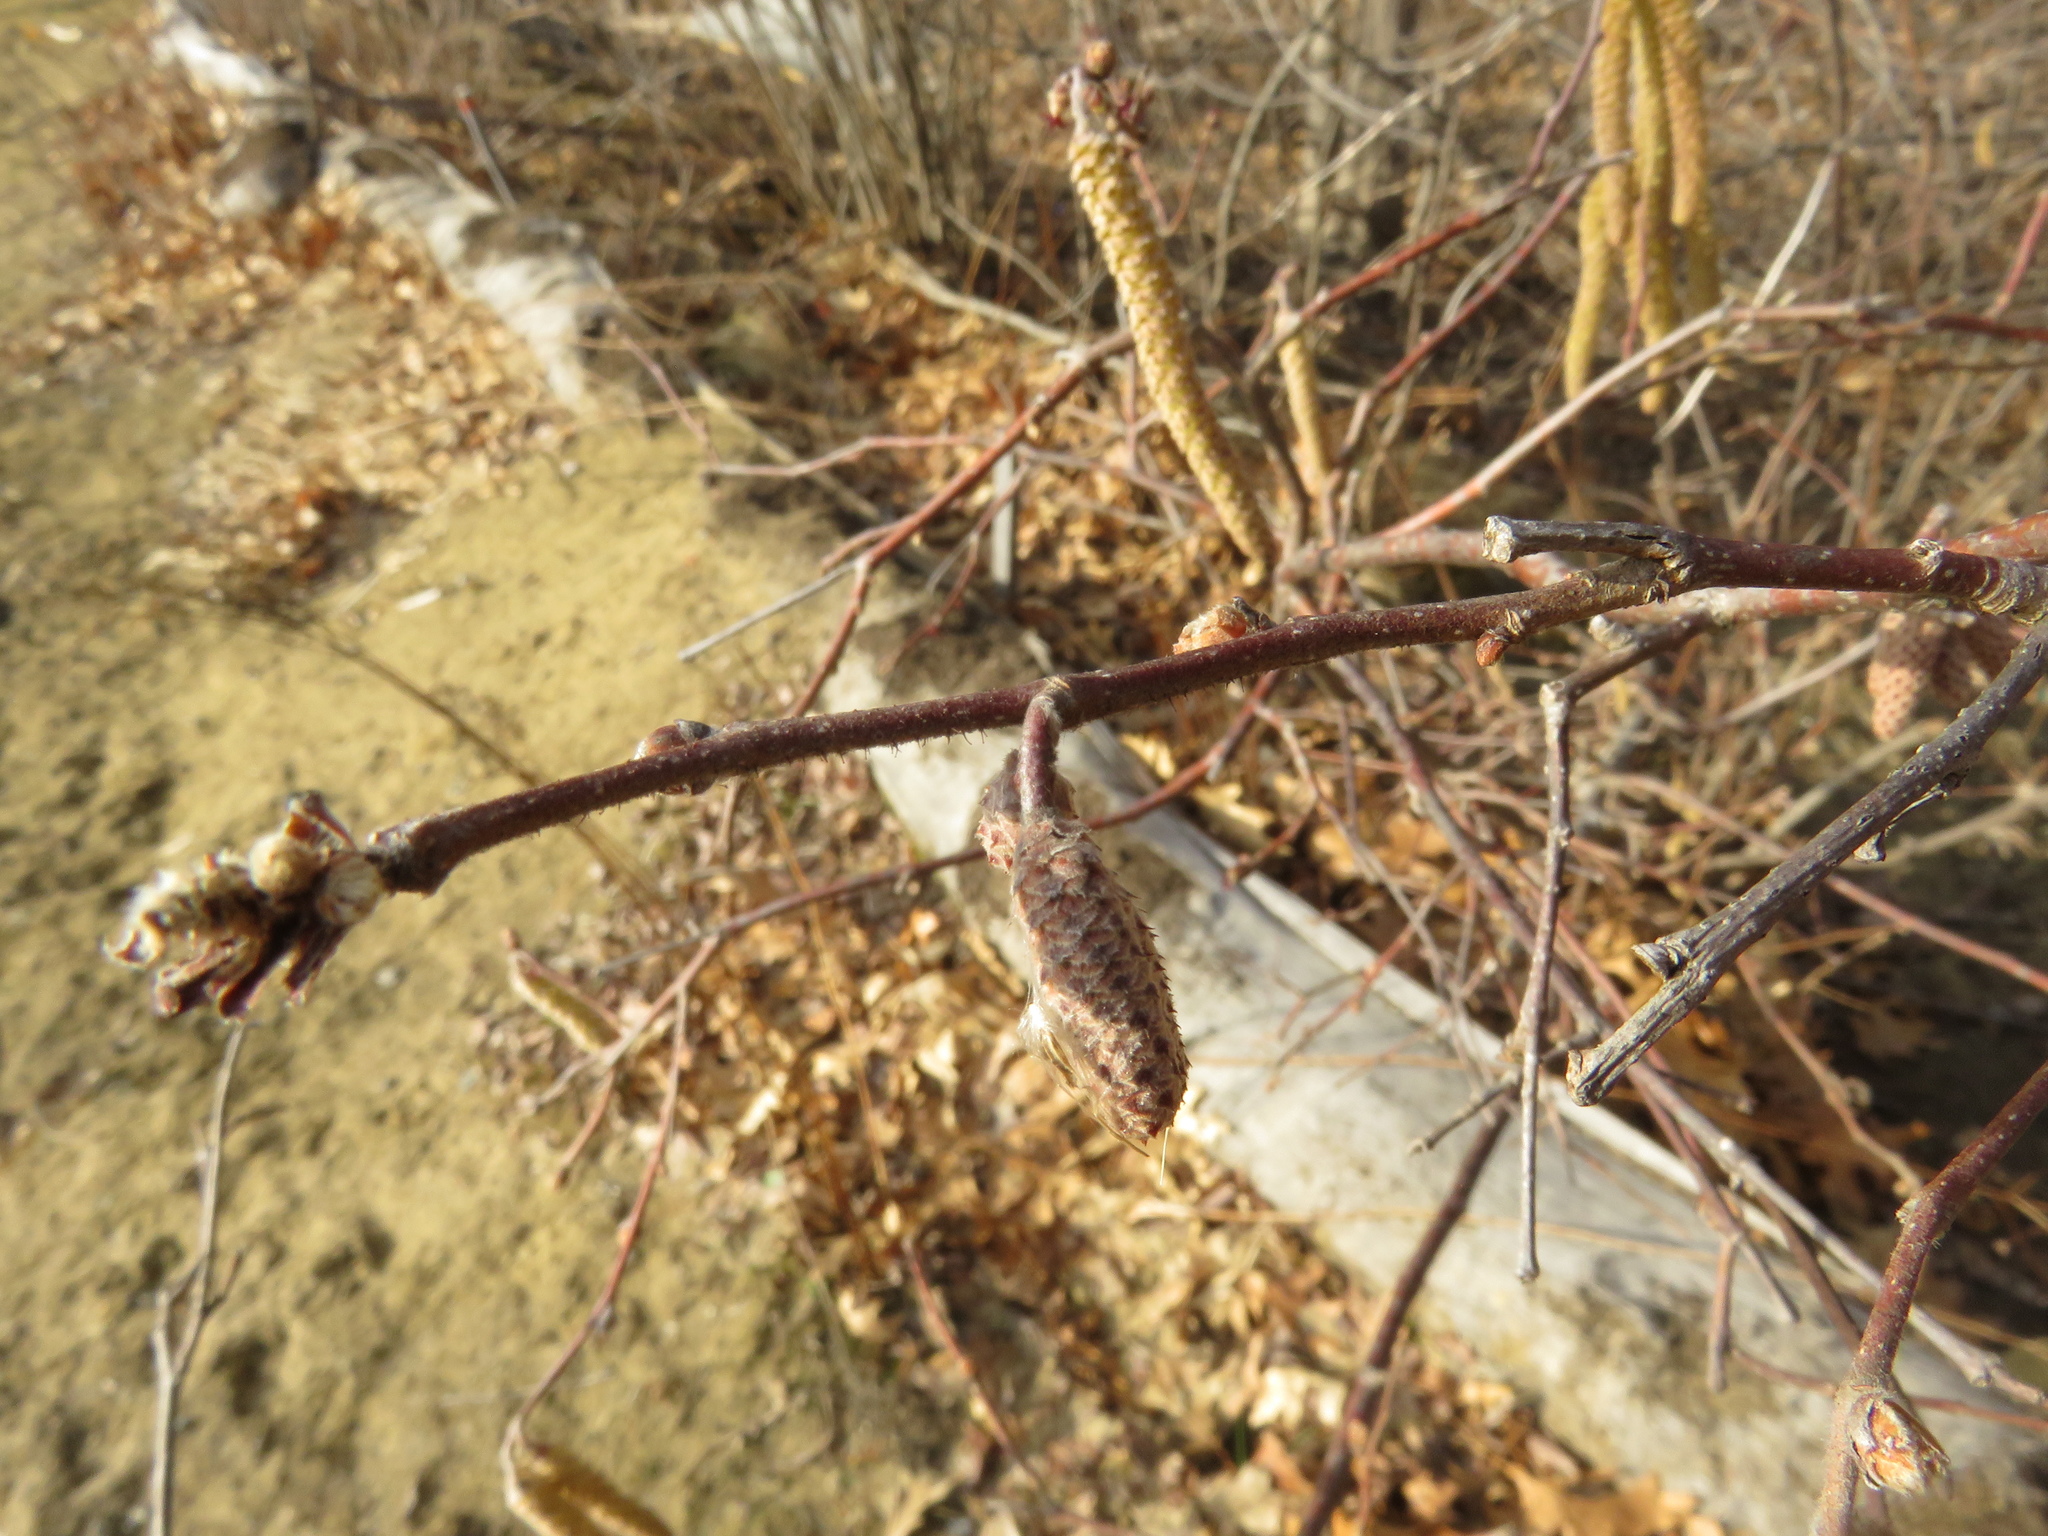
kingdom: Plantae
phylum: Tracheophyta
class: Magnoliopsida
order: Fagales
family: Betulaceae
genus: Corylus
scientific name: Corylus americana
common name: American hazel
